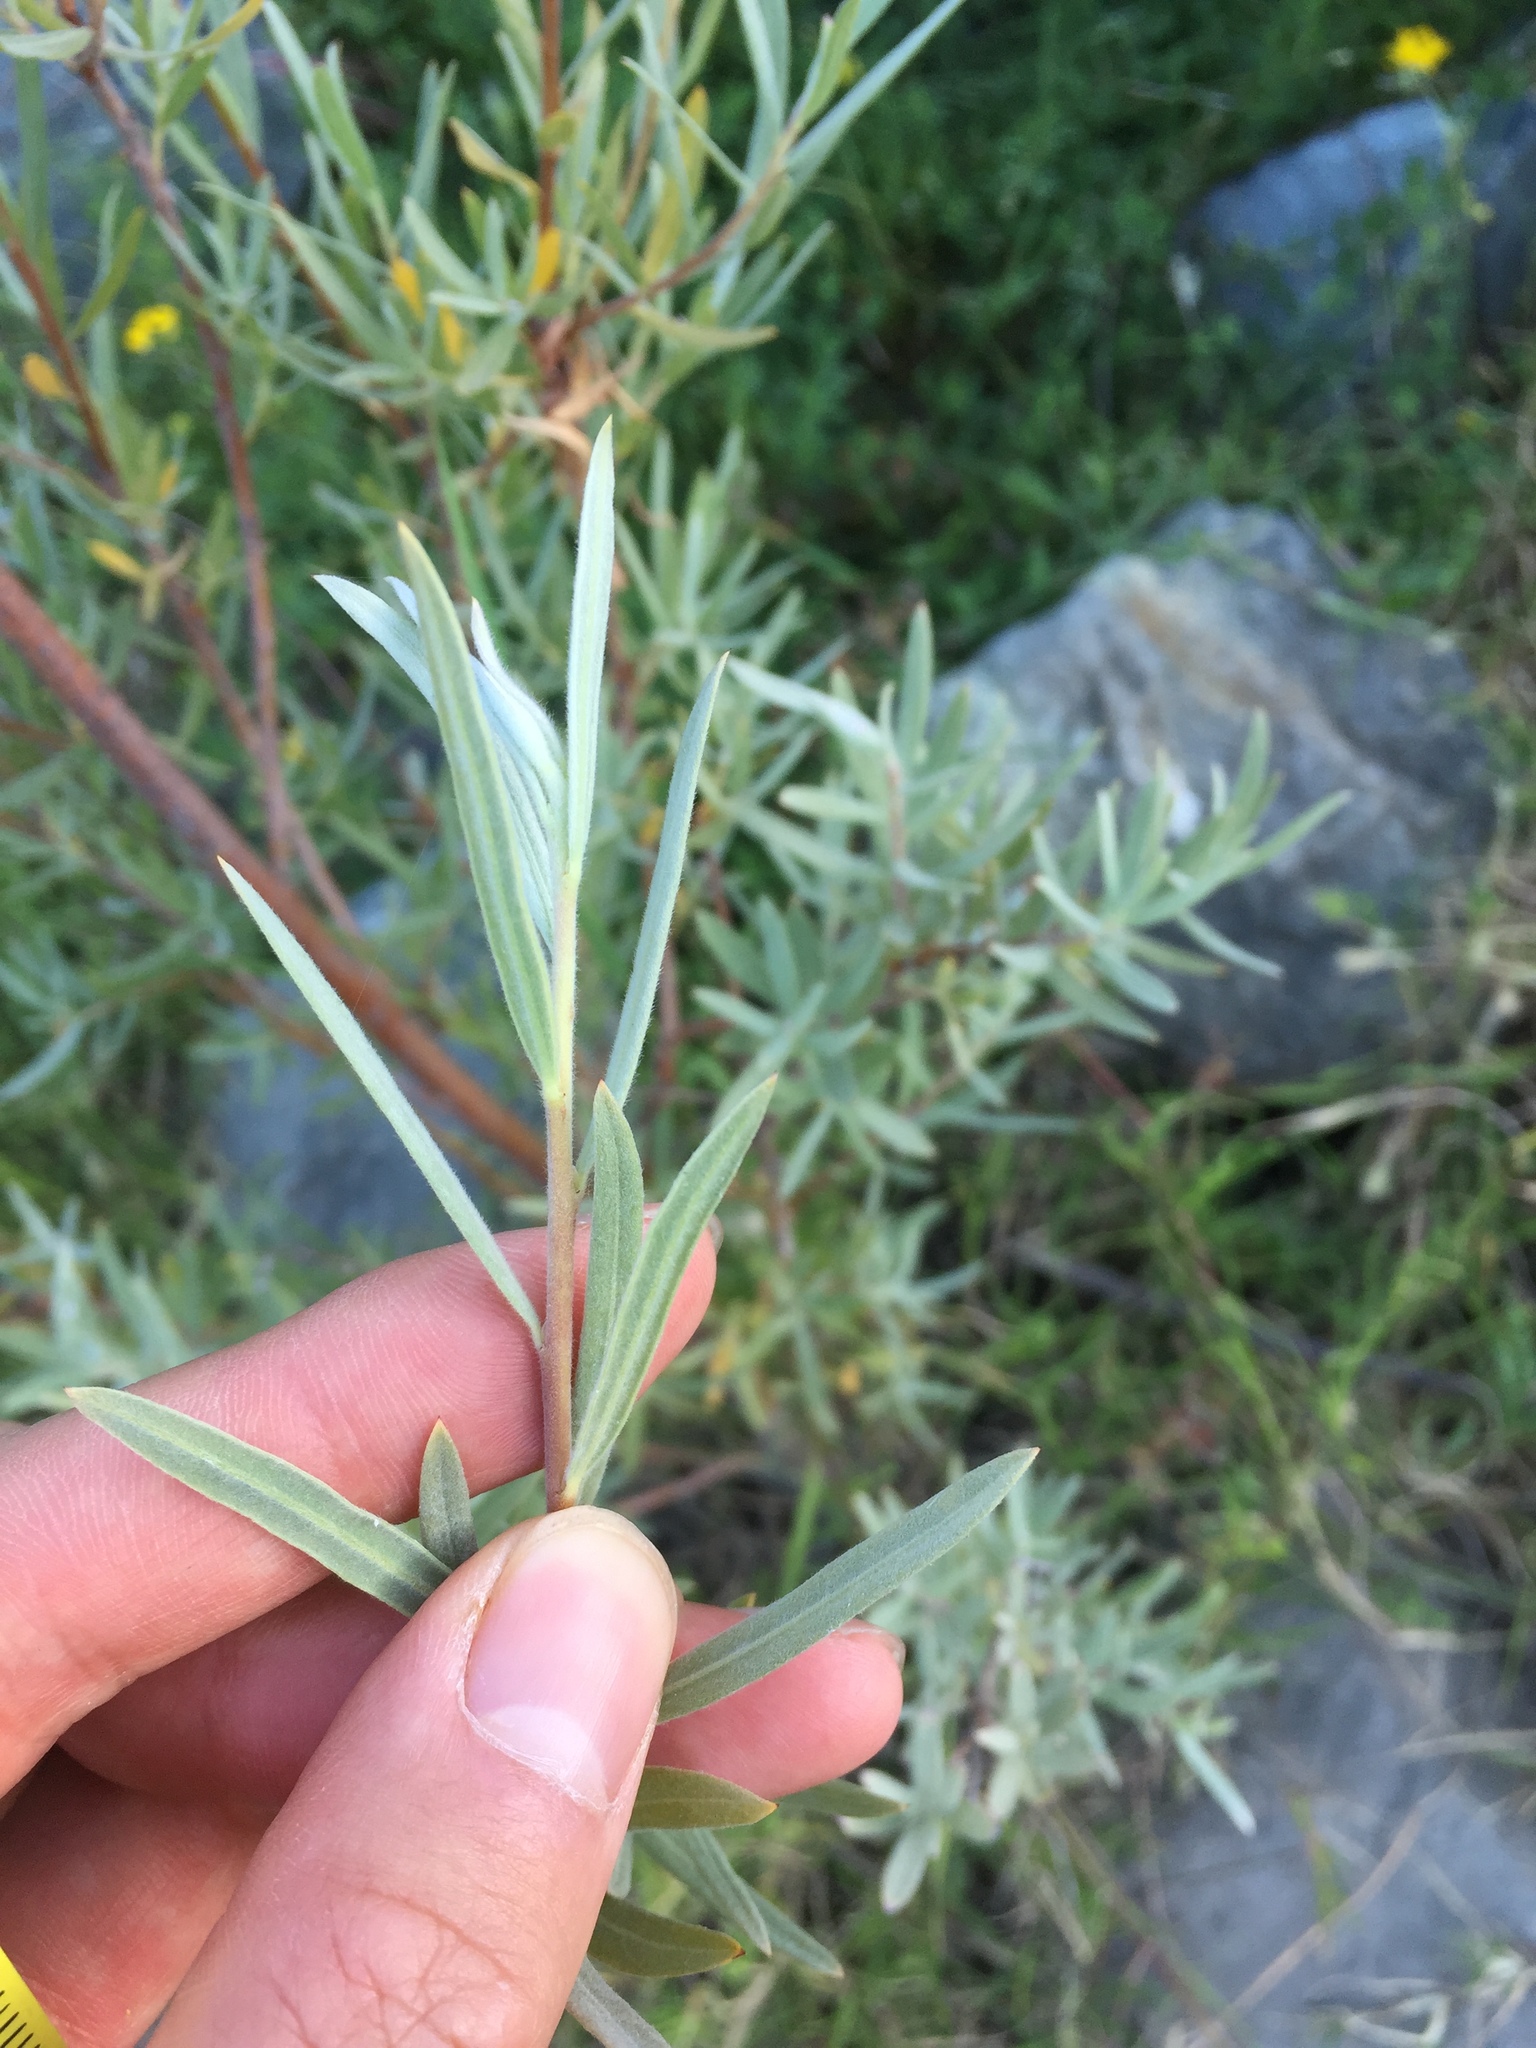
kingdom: Plantae
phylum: Tracheophyta
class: Magnoliopsida
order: Malpighiales
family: Salicaceae
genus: Salix
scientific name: Salix exigua
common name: Coyote willow
